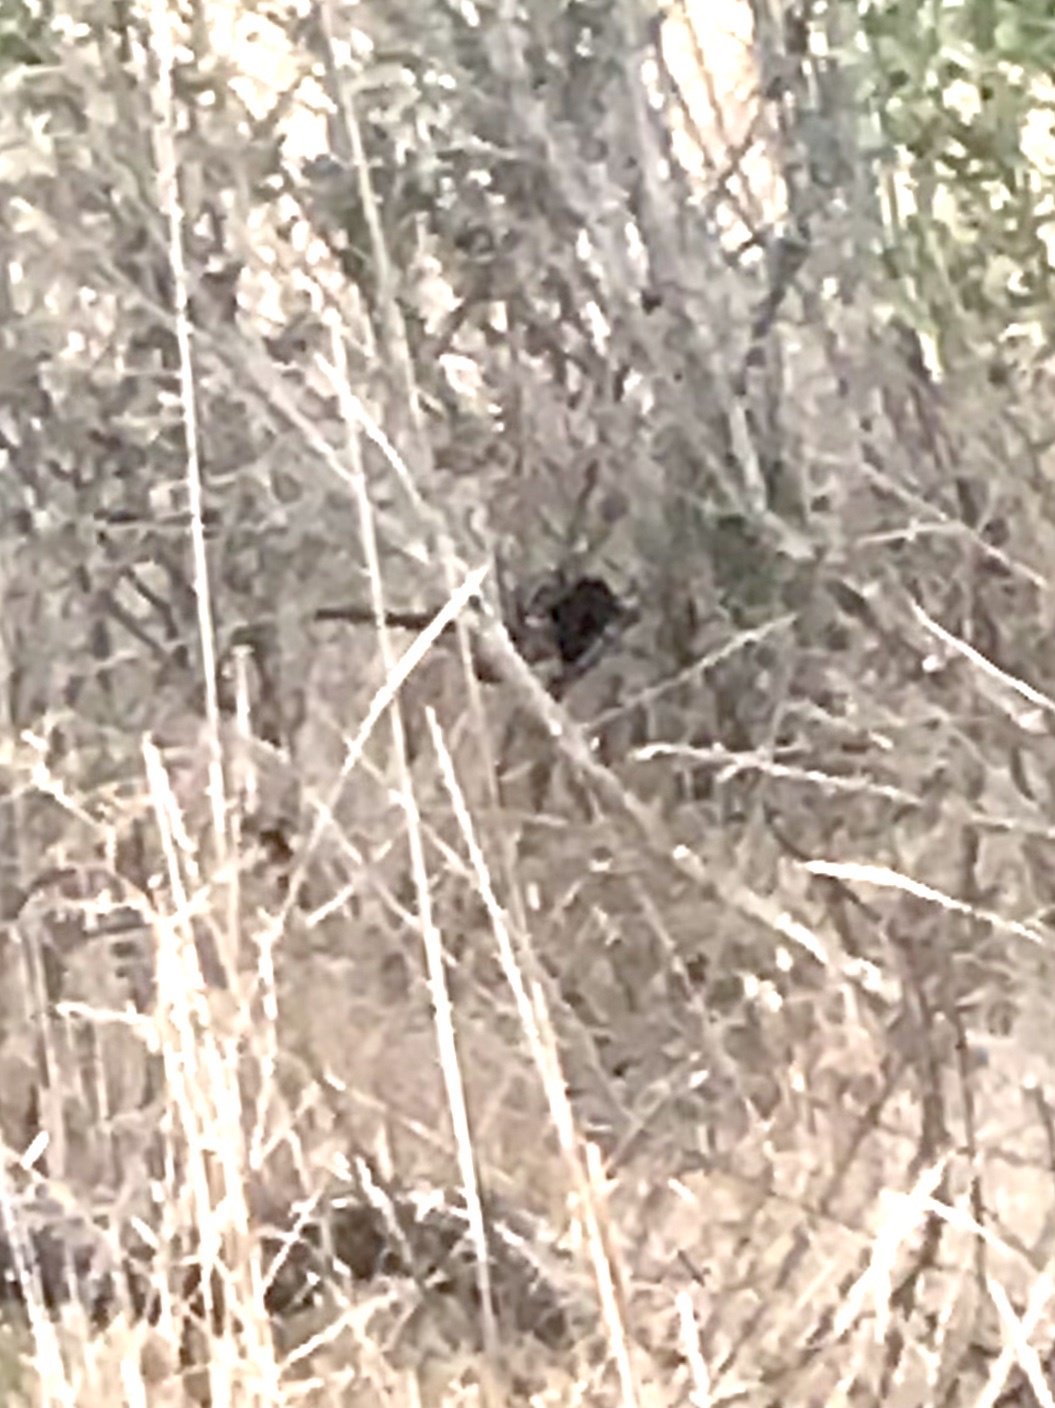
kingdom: Animalia
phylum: Chordata
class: Aves
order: Passeriformes
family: Passerellidae
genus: Pipilo
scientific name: Pipilo maculatus
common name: Spotted towhee
